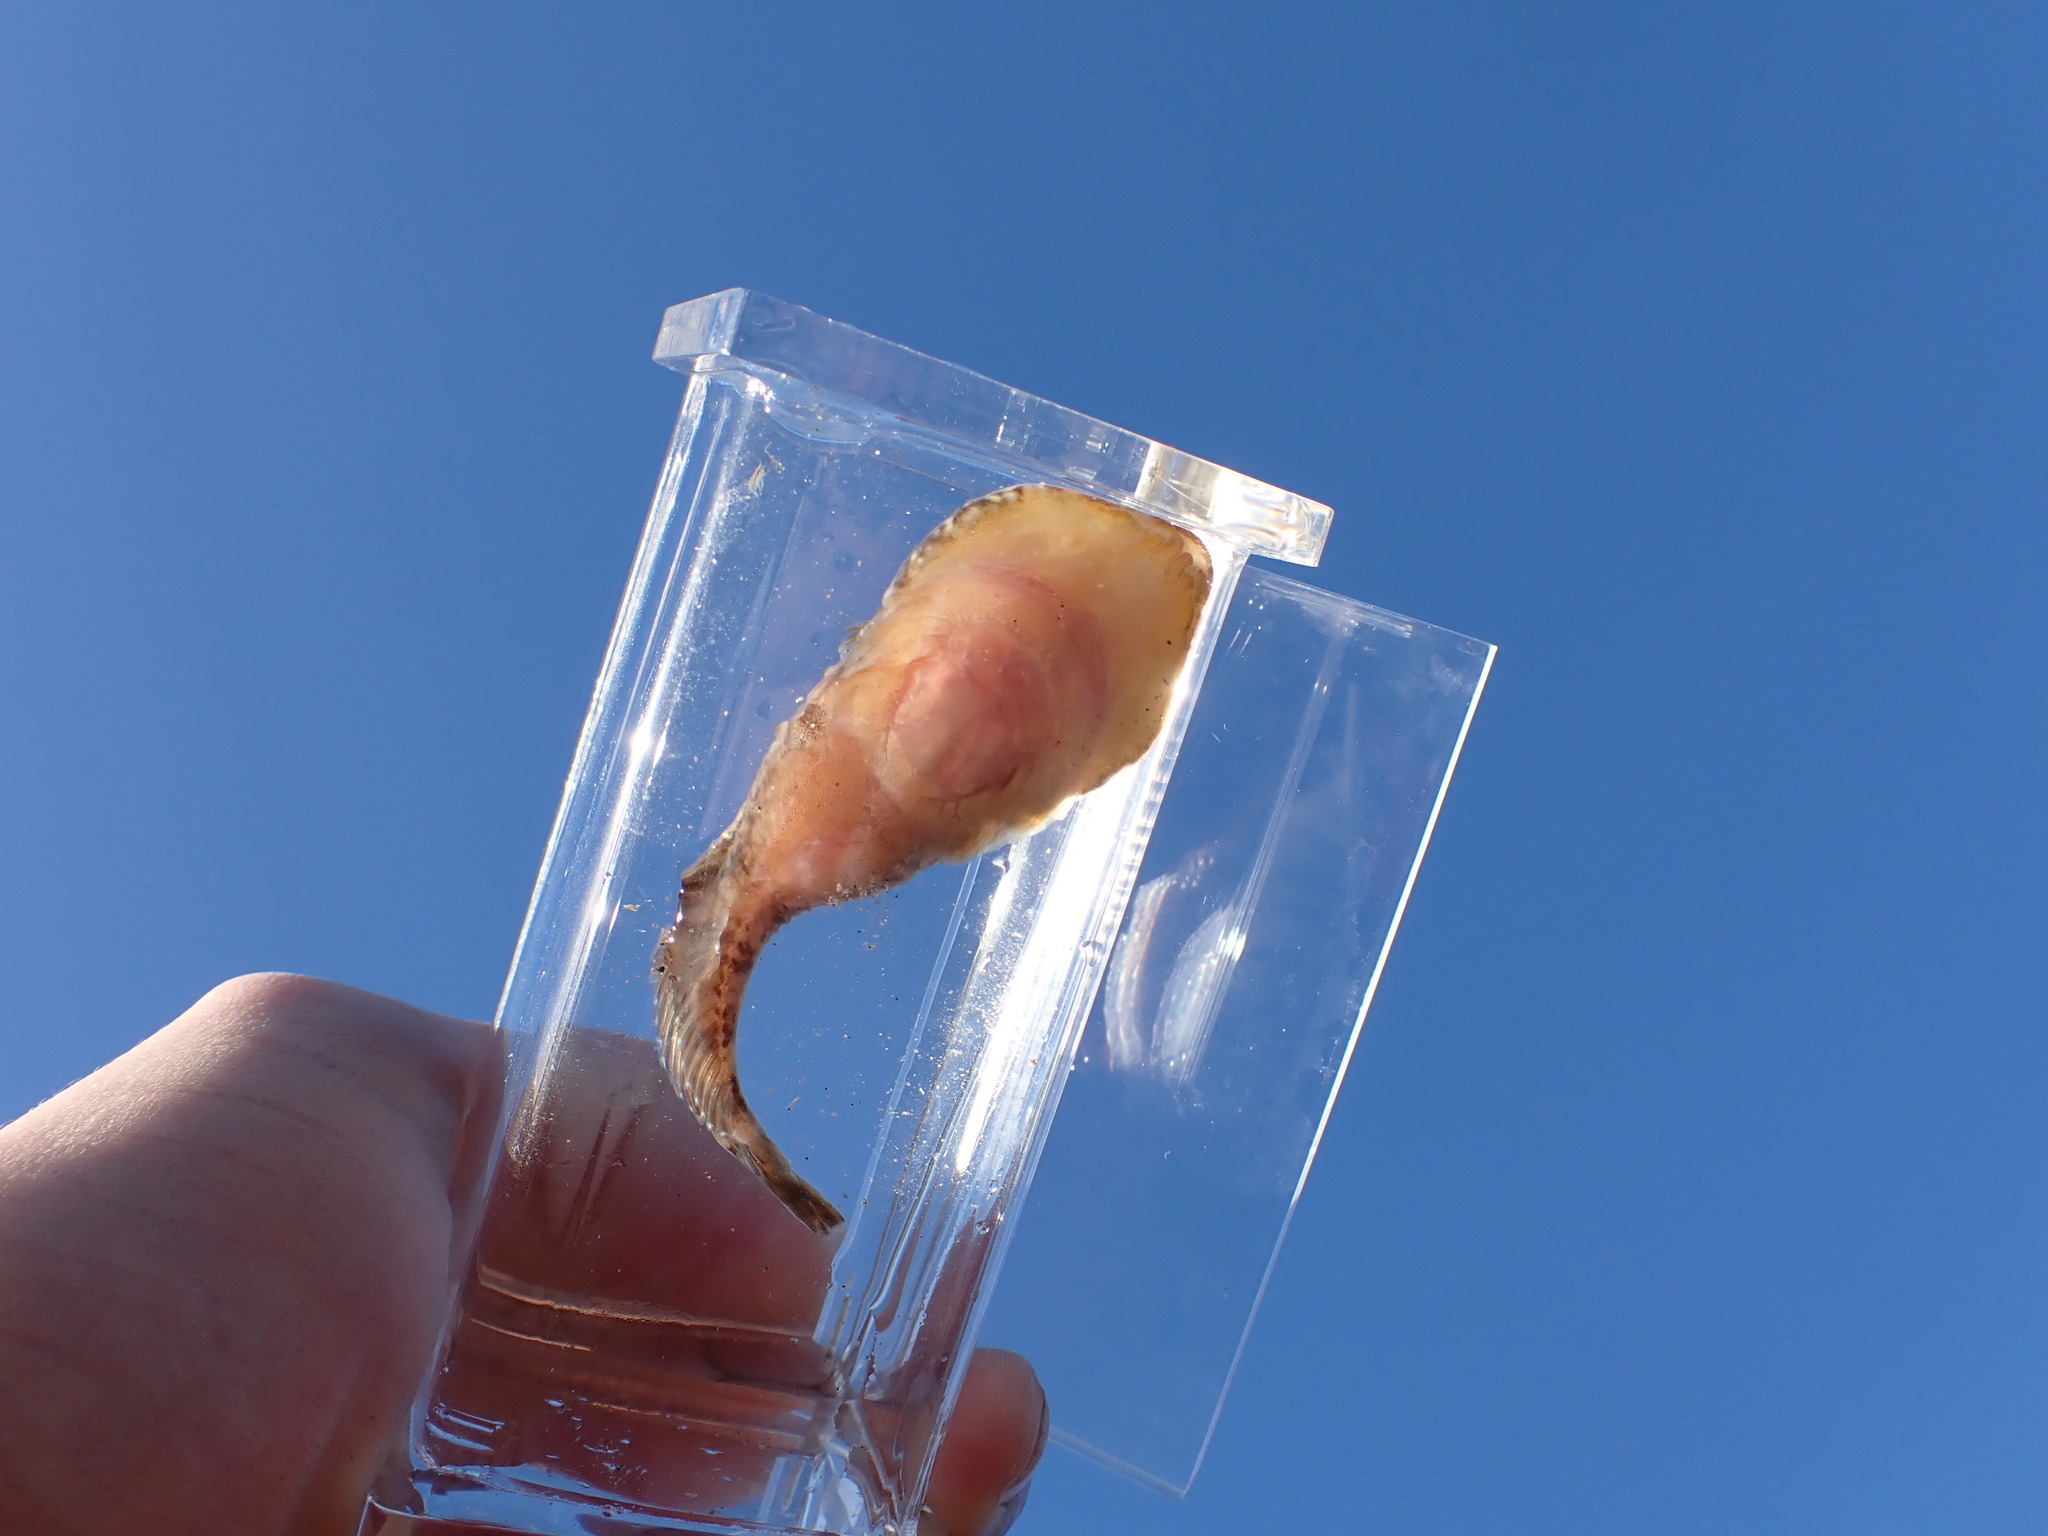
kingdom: Animalia
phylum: Chordata
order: Gobiesociformes
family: Gobiesocidae
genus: Gobiesox
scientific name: Gobiesox maeandricus
